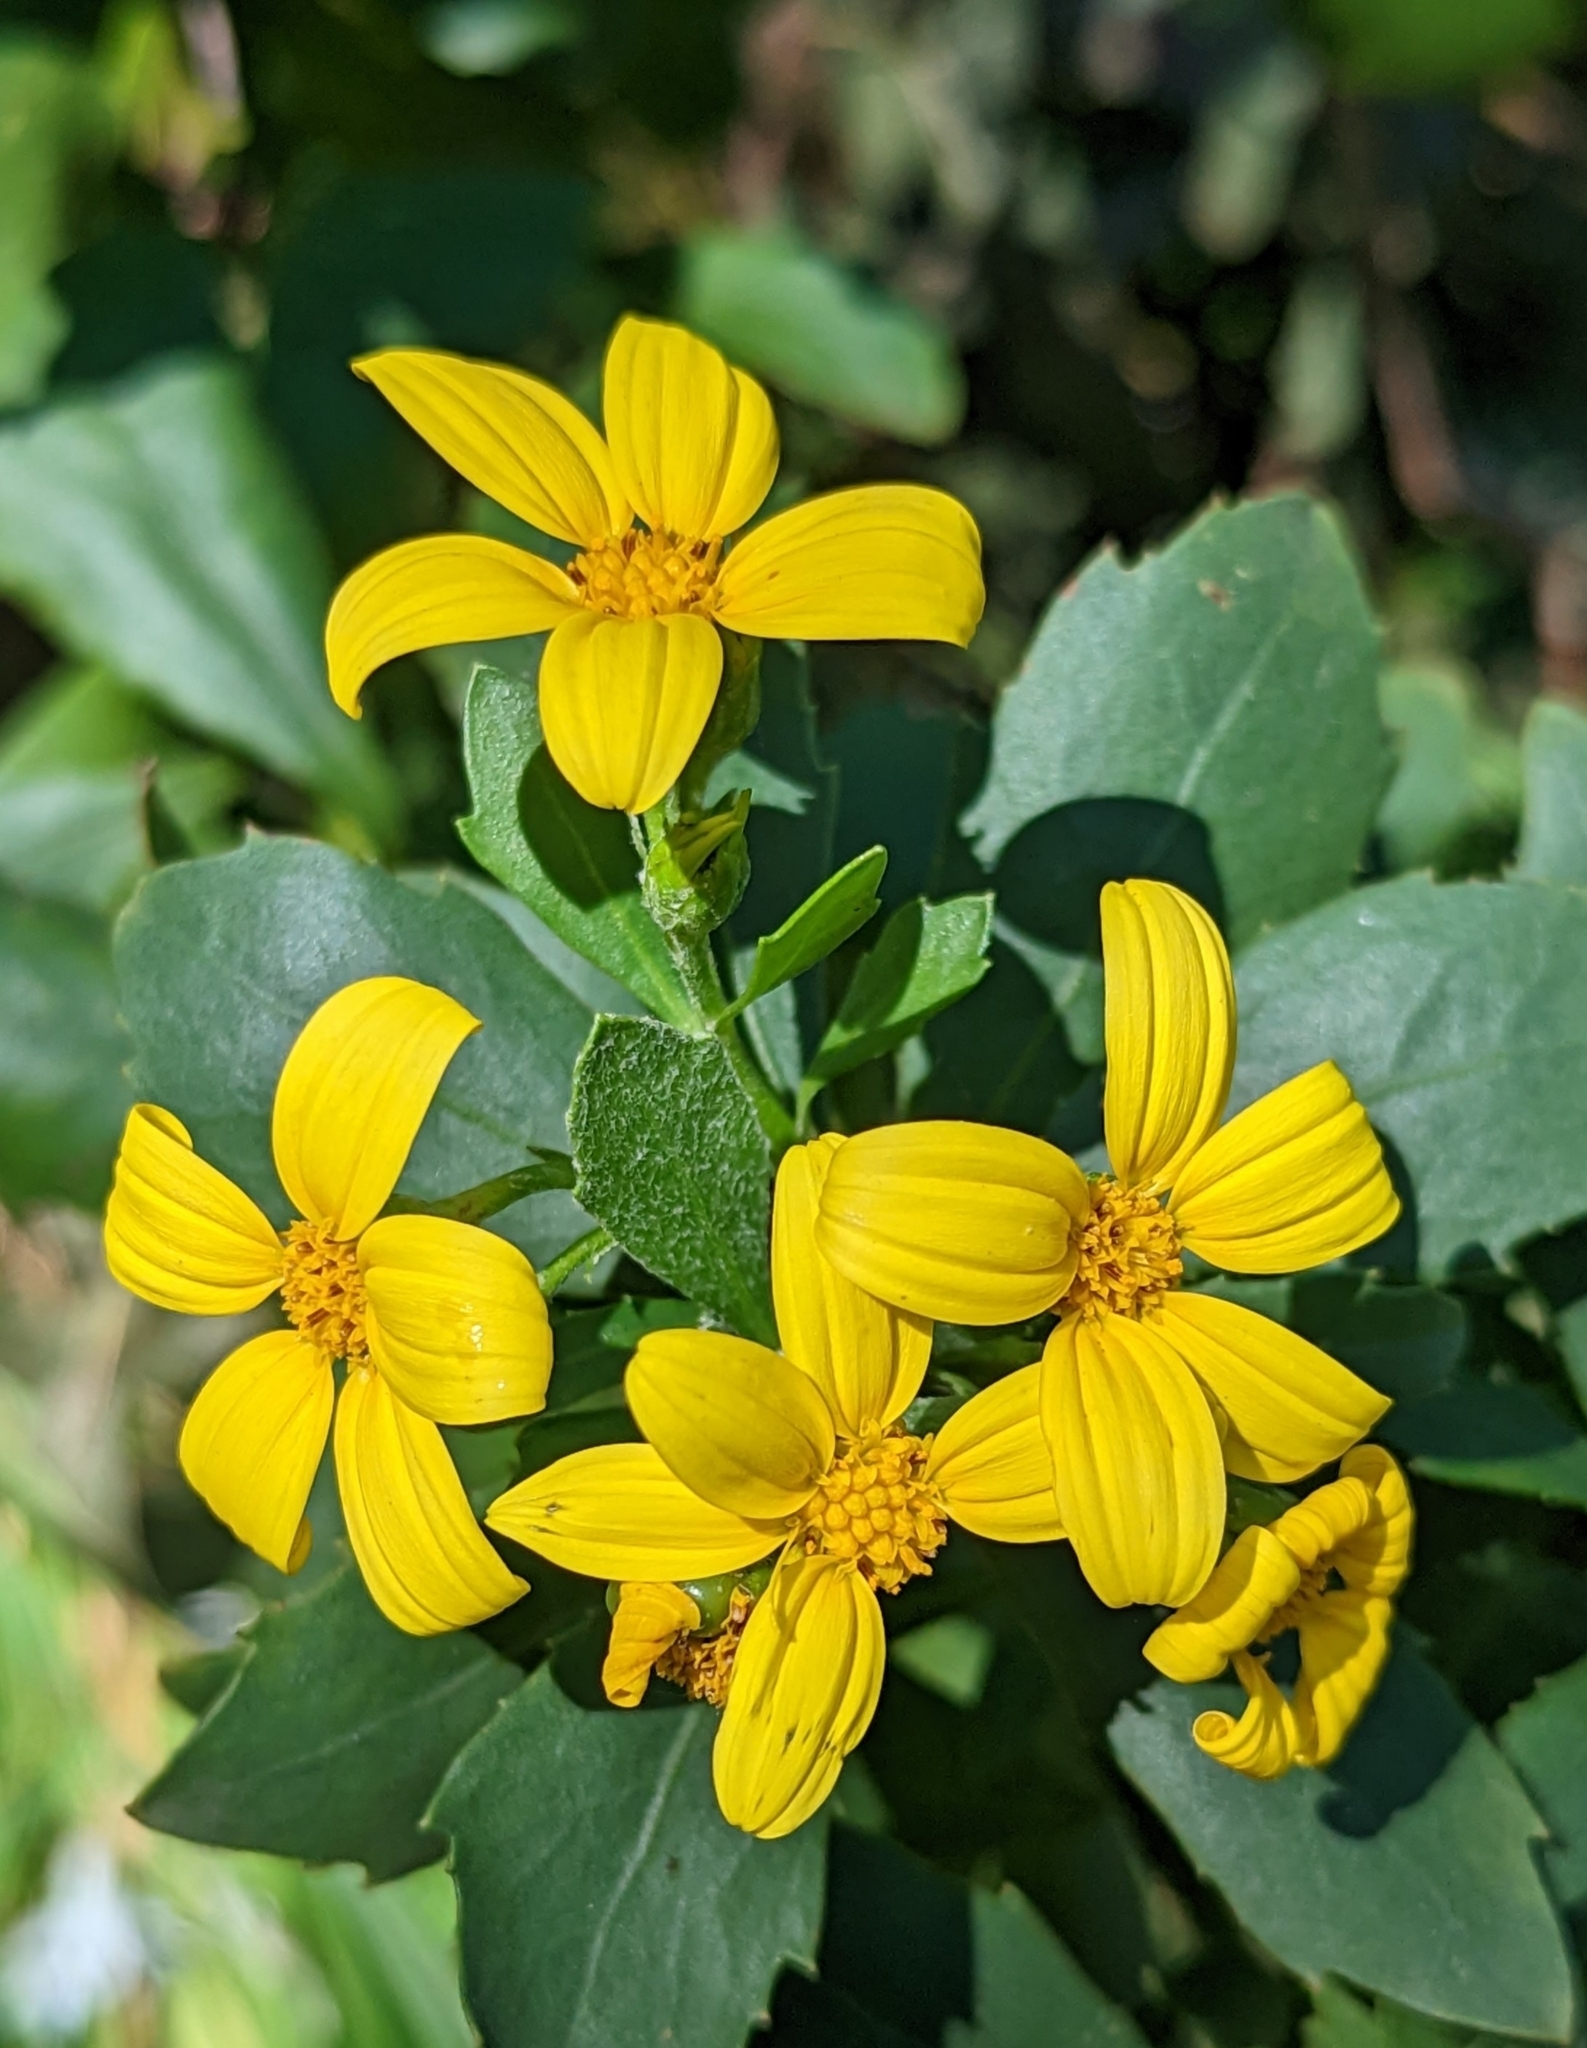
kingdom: Plantae
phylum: Tracheophyta
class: Magnoliopsida
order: Asterales
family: Asteraceae
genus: Osteospermum
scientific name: Osteospermum moniliferum
